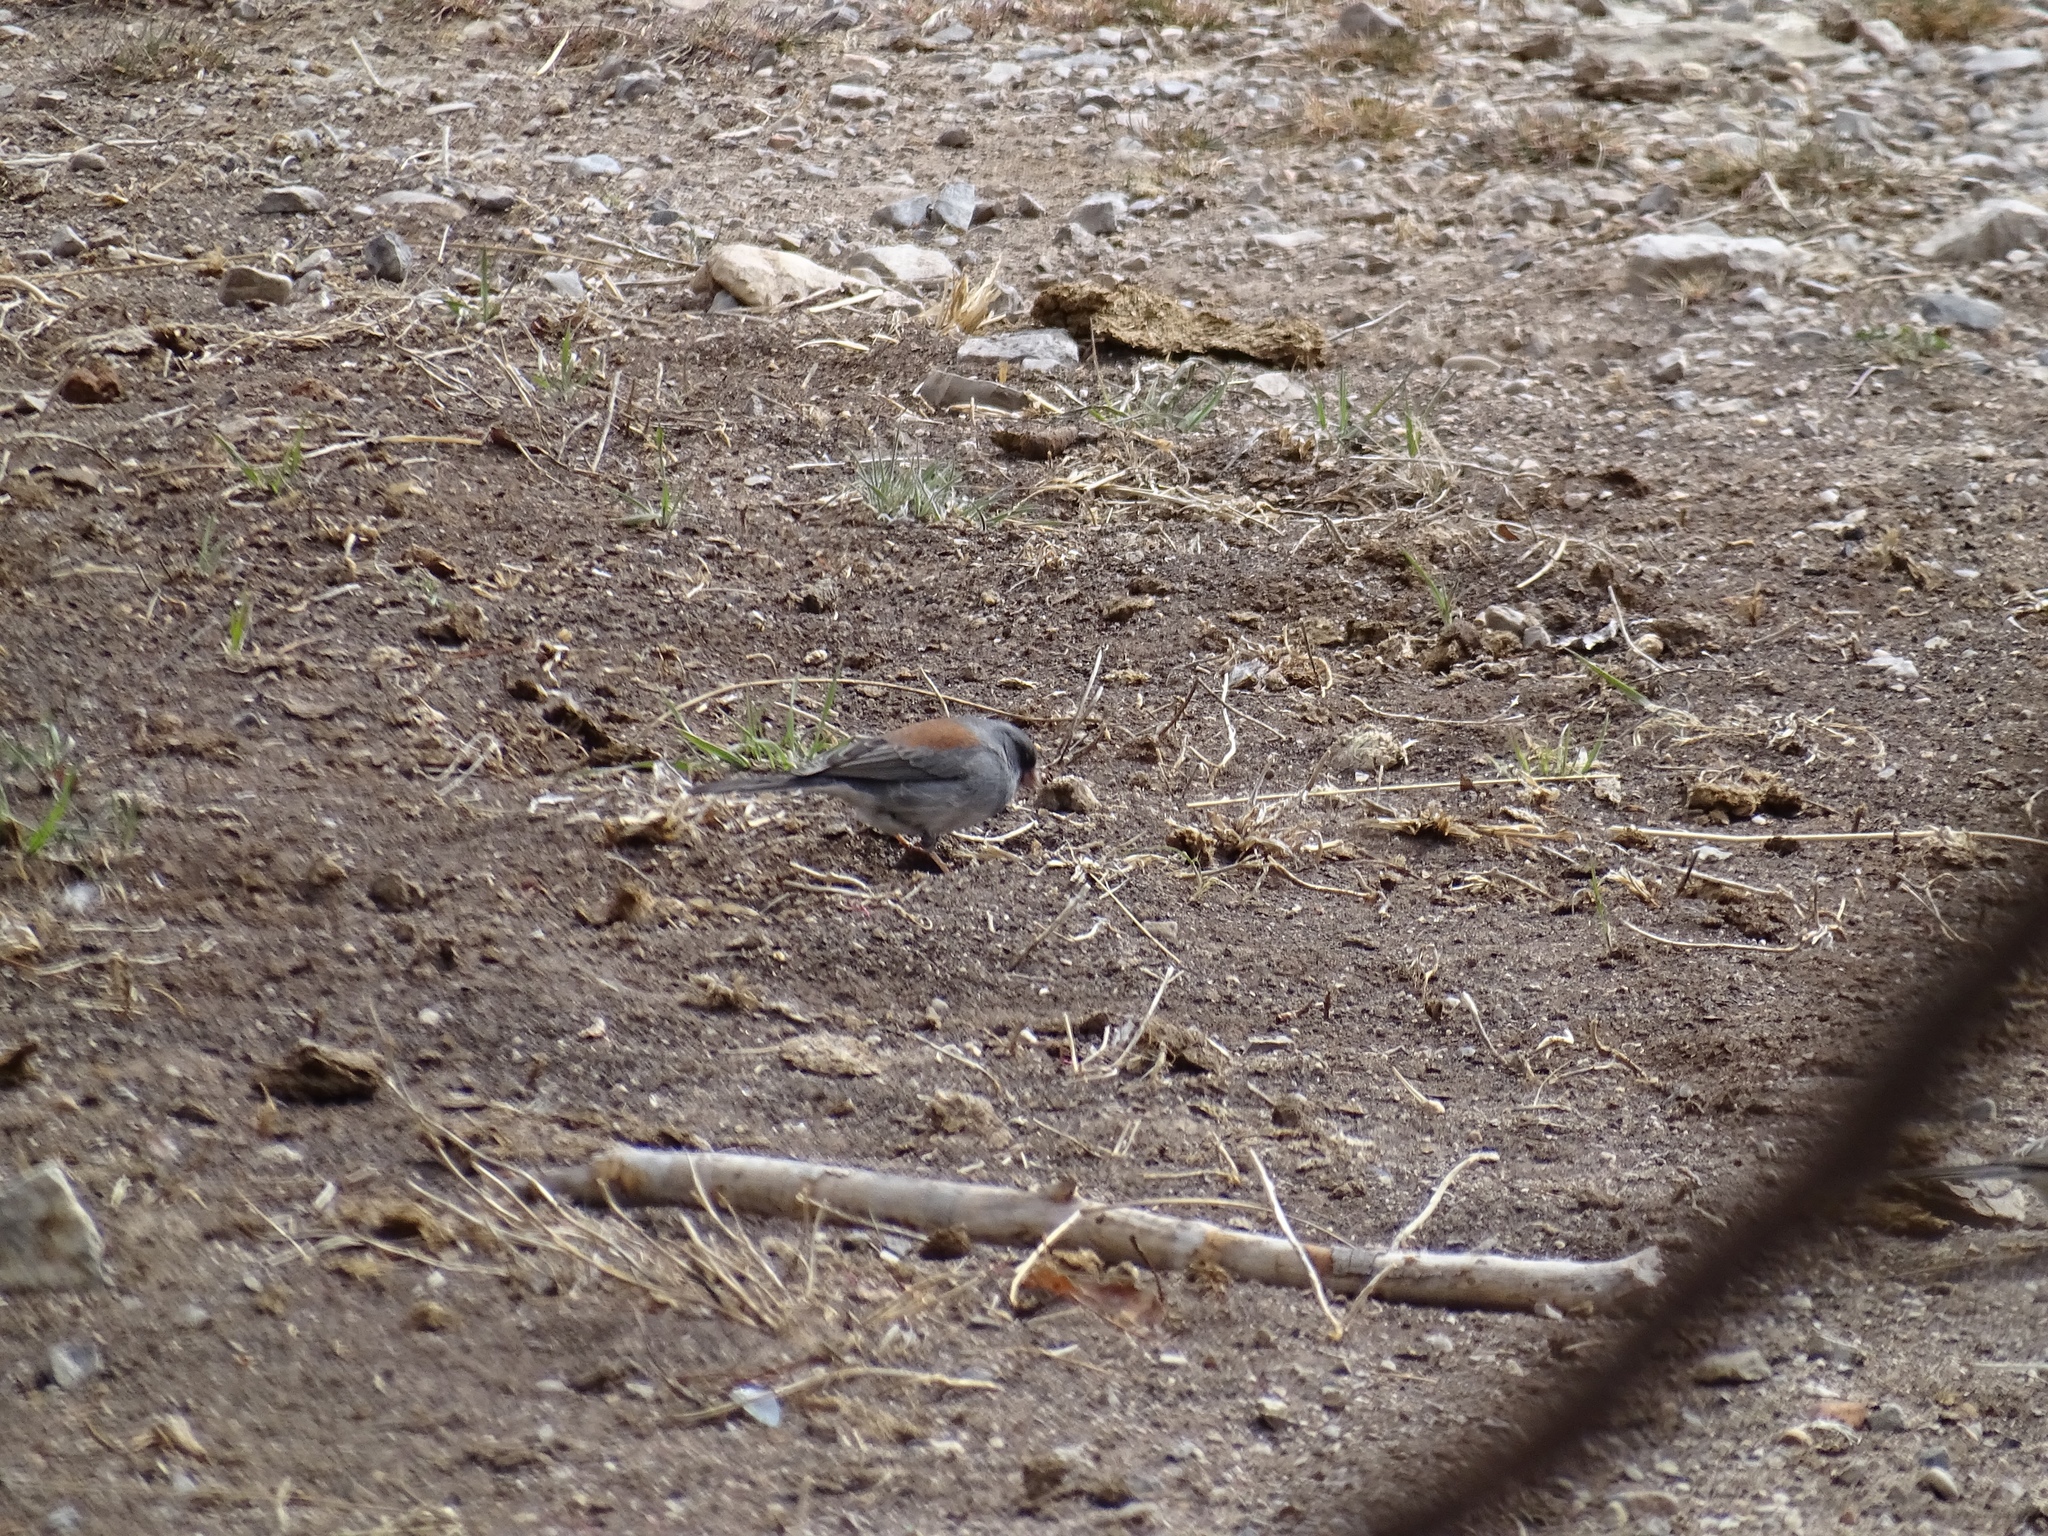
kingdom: Animalia
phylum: Chordata
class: Aves
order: Passeriformes
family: Passerellidae
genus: Junco
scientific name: Junco hyemalis
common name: Dark-eyed junco
